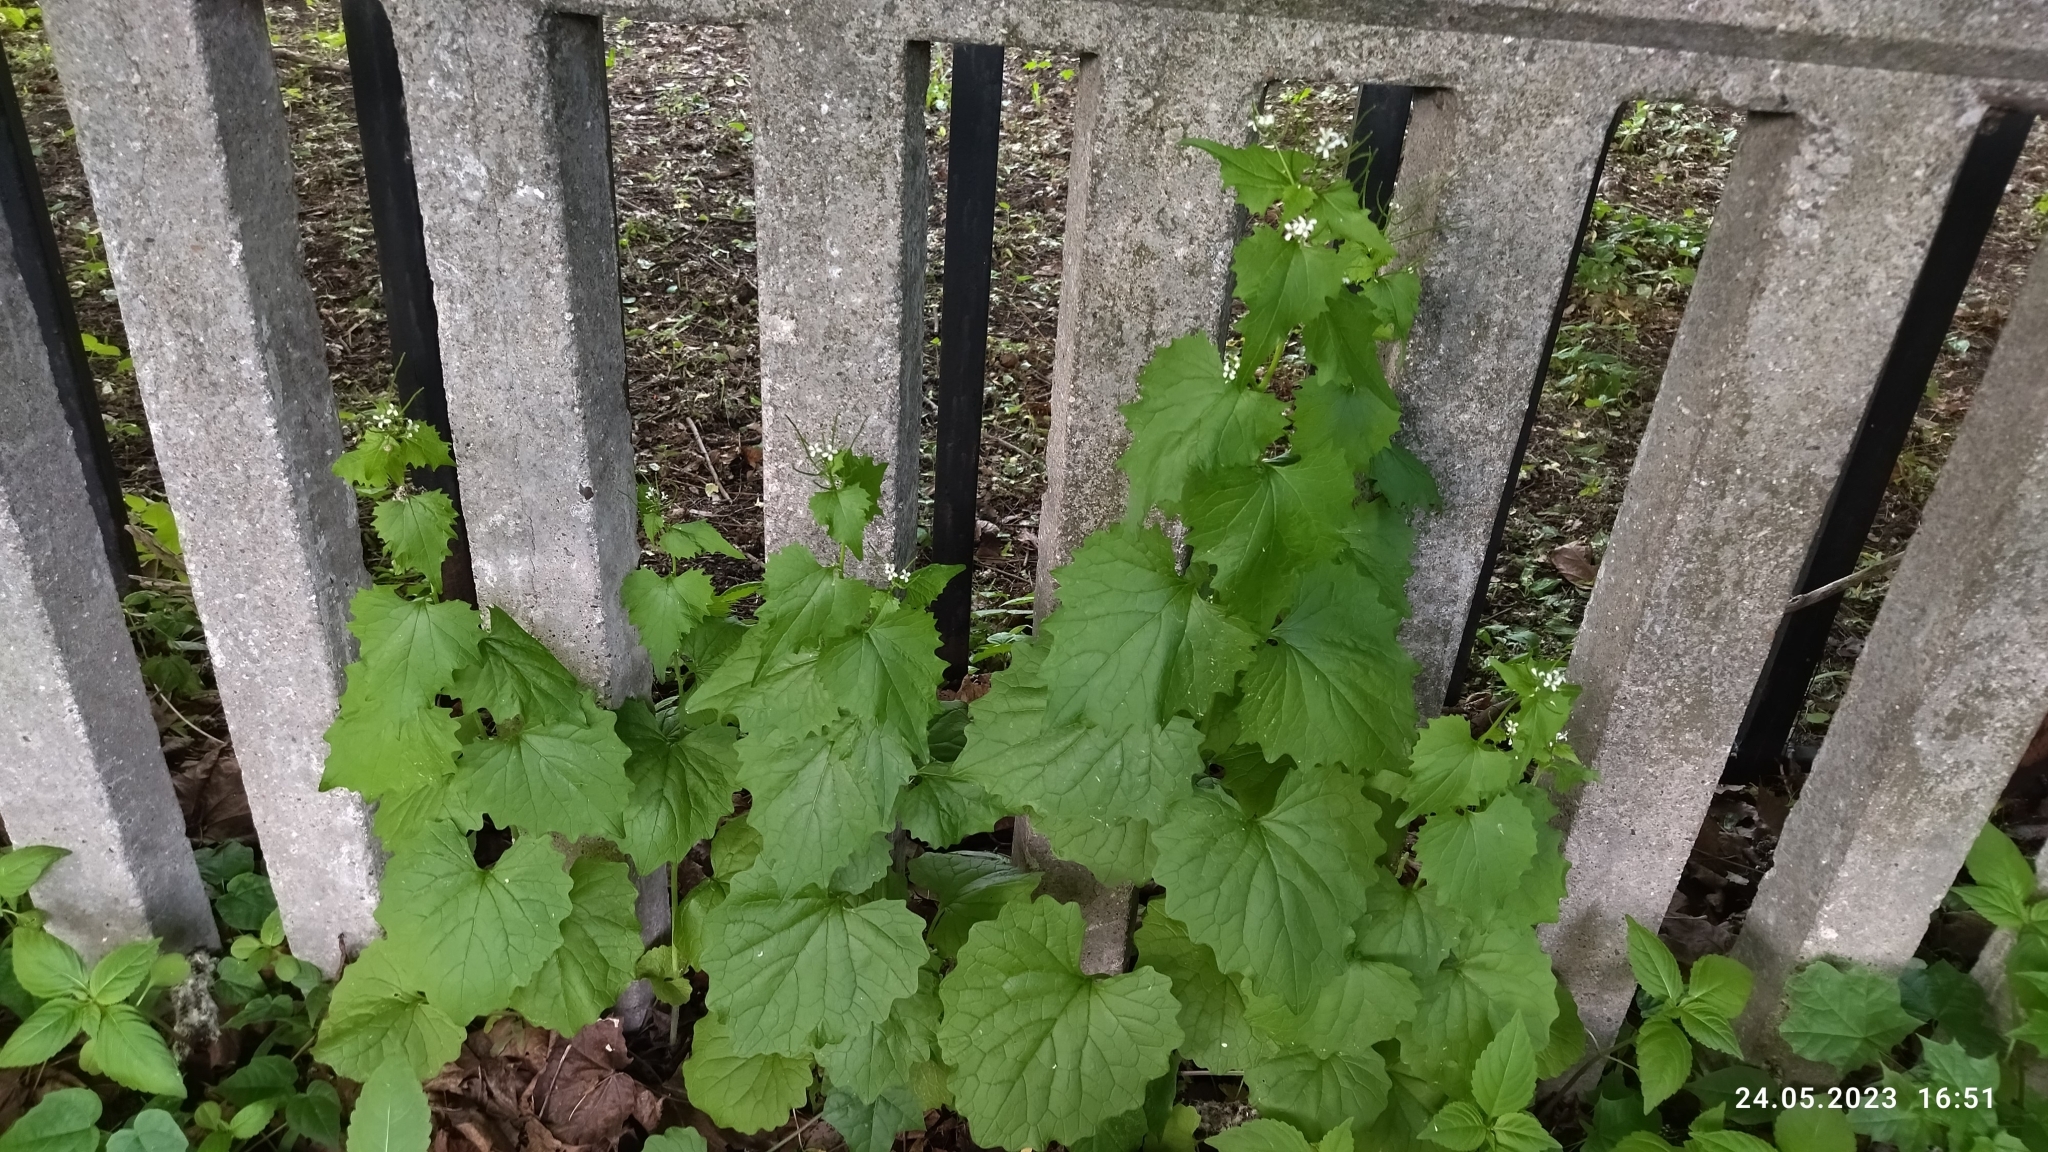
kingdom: Plantae
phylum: Tracheophyta
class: Magnoliopsida
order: Brassicales
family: Brassicaceae
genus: Alliaria
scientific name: Alliaria petiolata
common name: Garlic mustard
